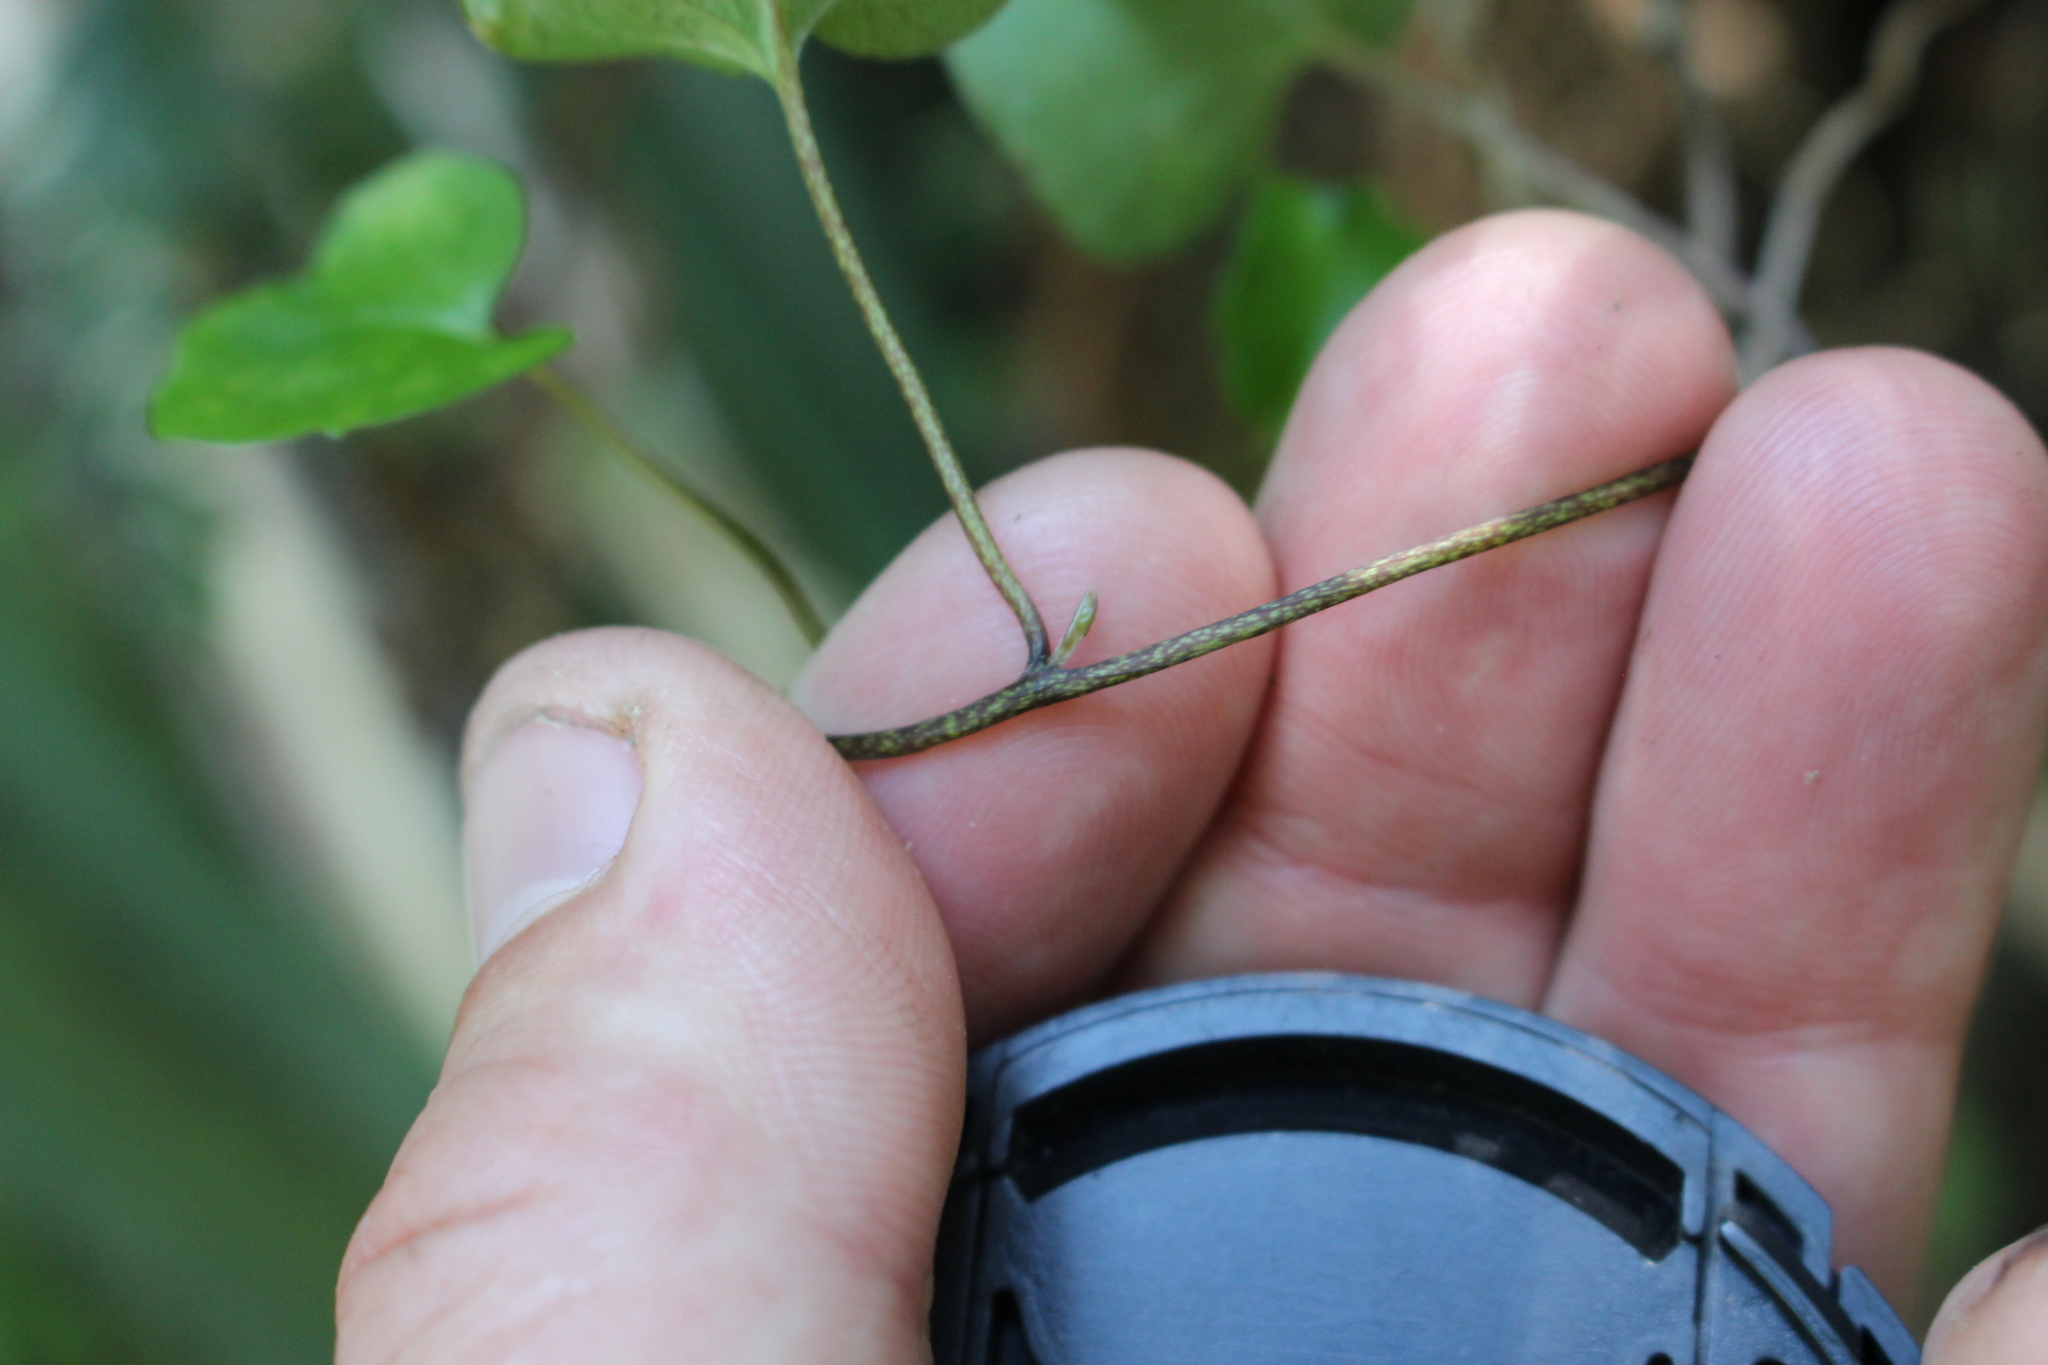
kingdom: Plantae
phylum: Tracheophyta
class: Magnoliopsida
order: Solanales
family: Convolvulaceae
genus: Calystegia
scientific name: Calystegia tuguriorum
